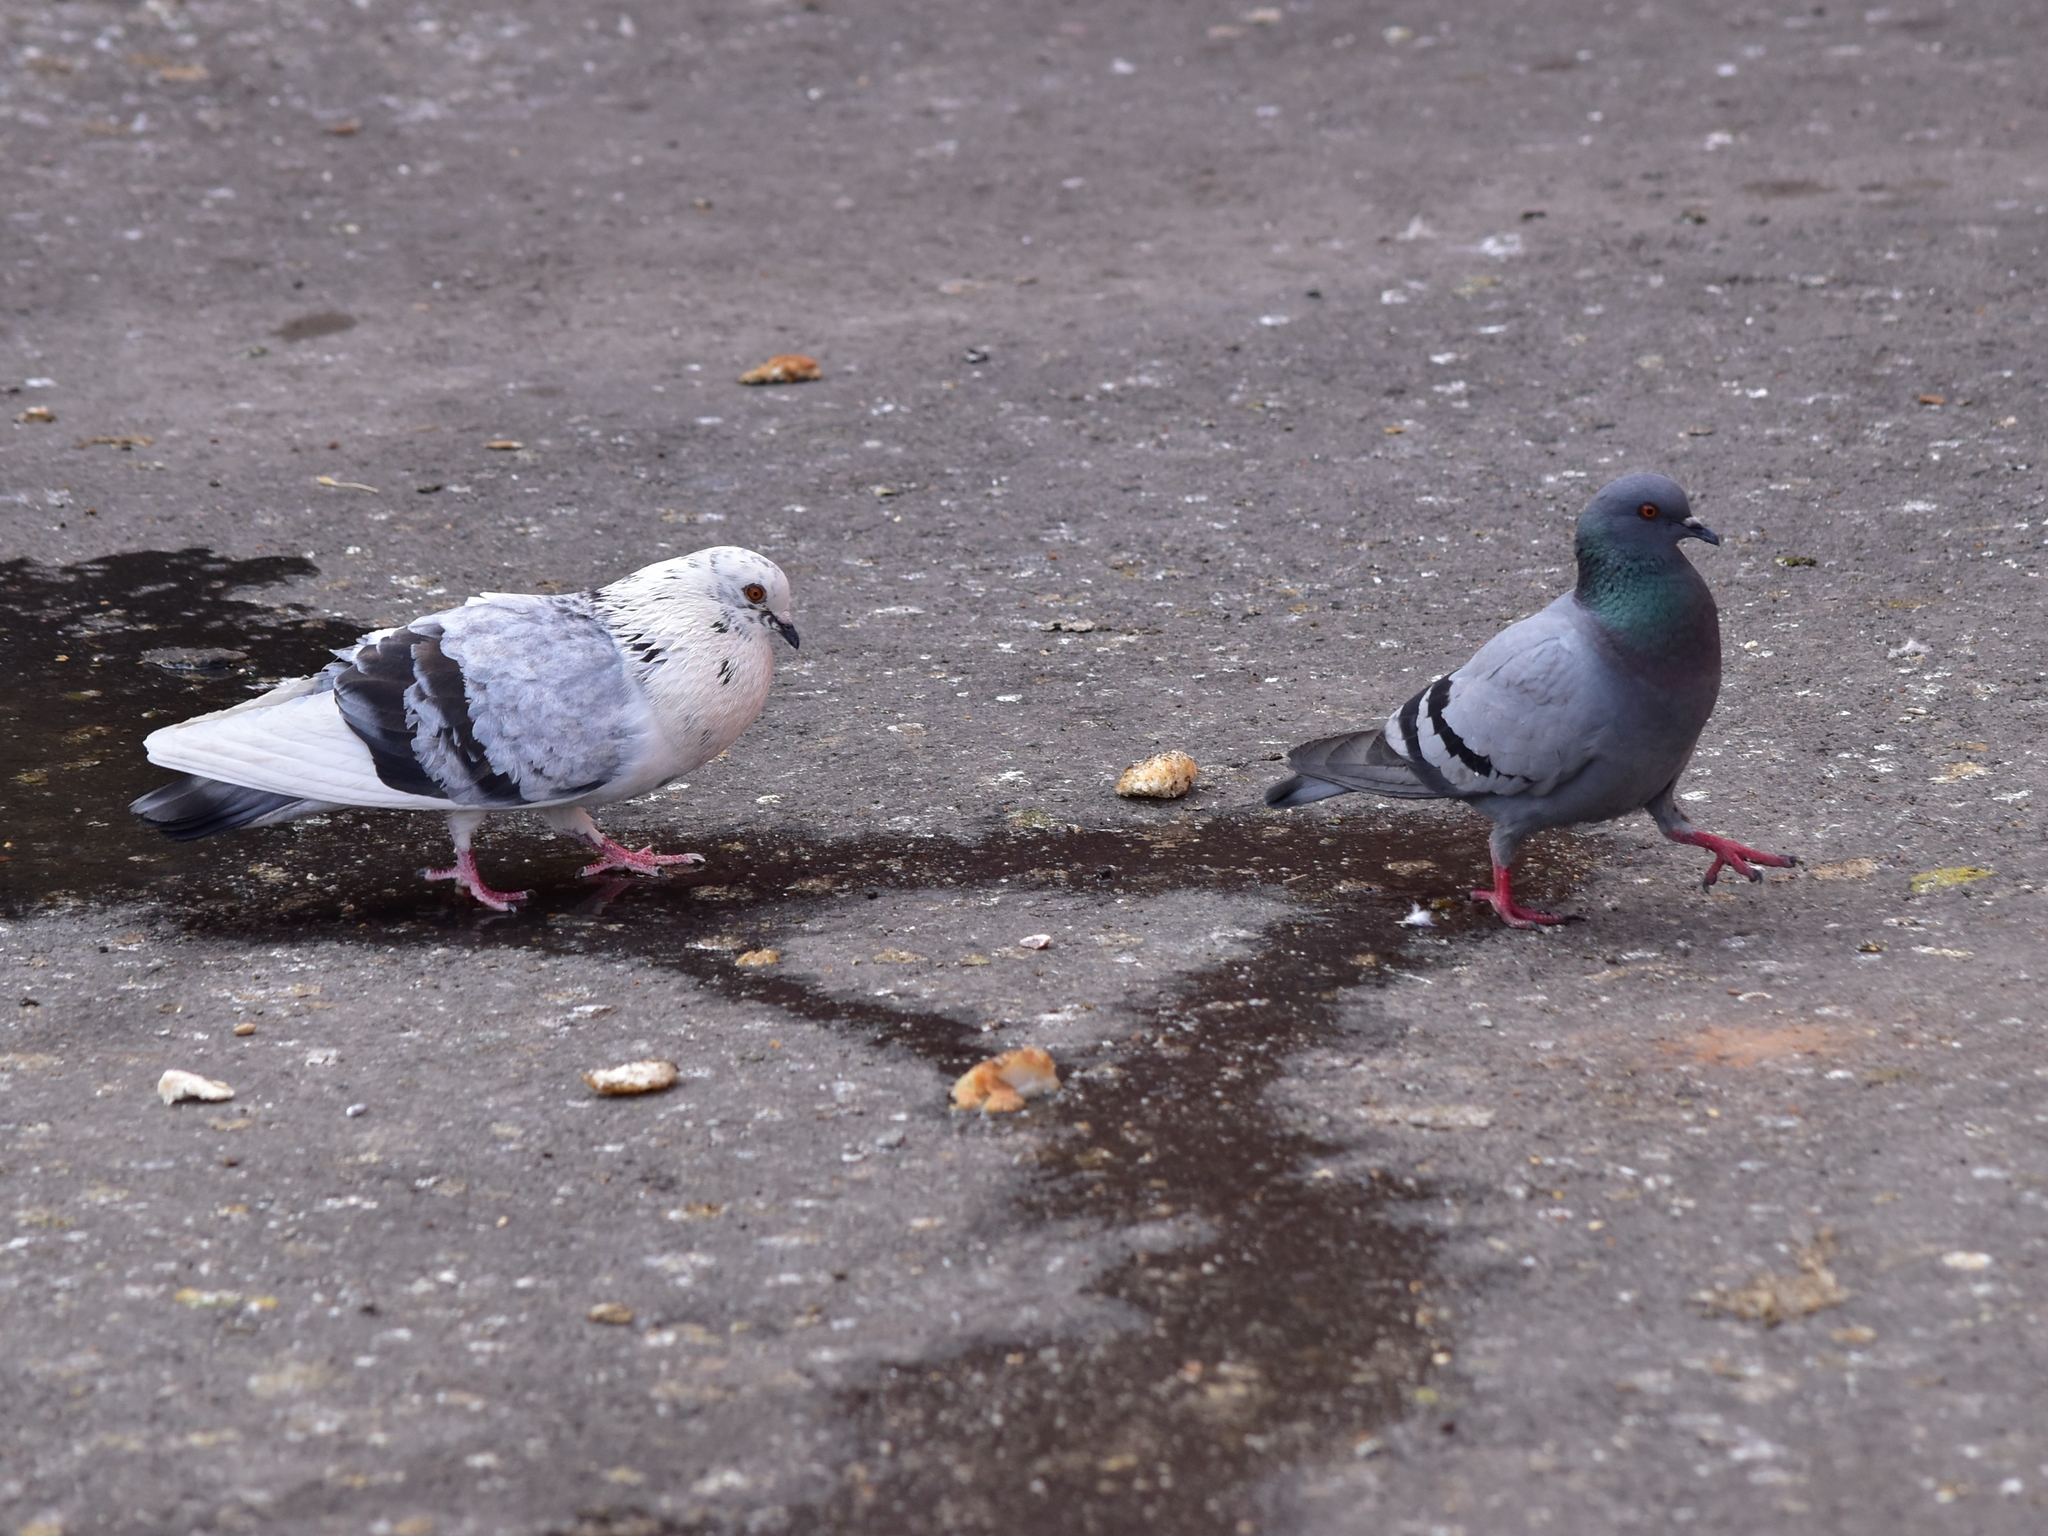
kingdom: Animalia
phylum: Chordata
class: Aves
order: Columbiformes
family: Columbidae
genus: Columba
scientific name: Columba livia
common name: Rock pigeon
